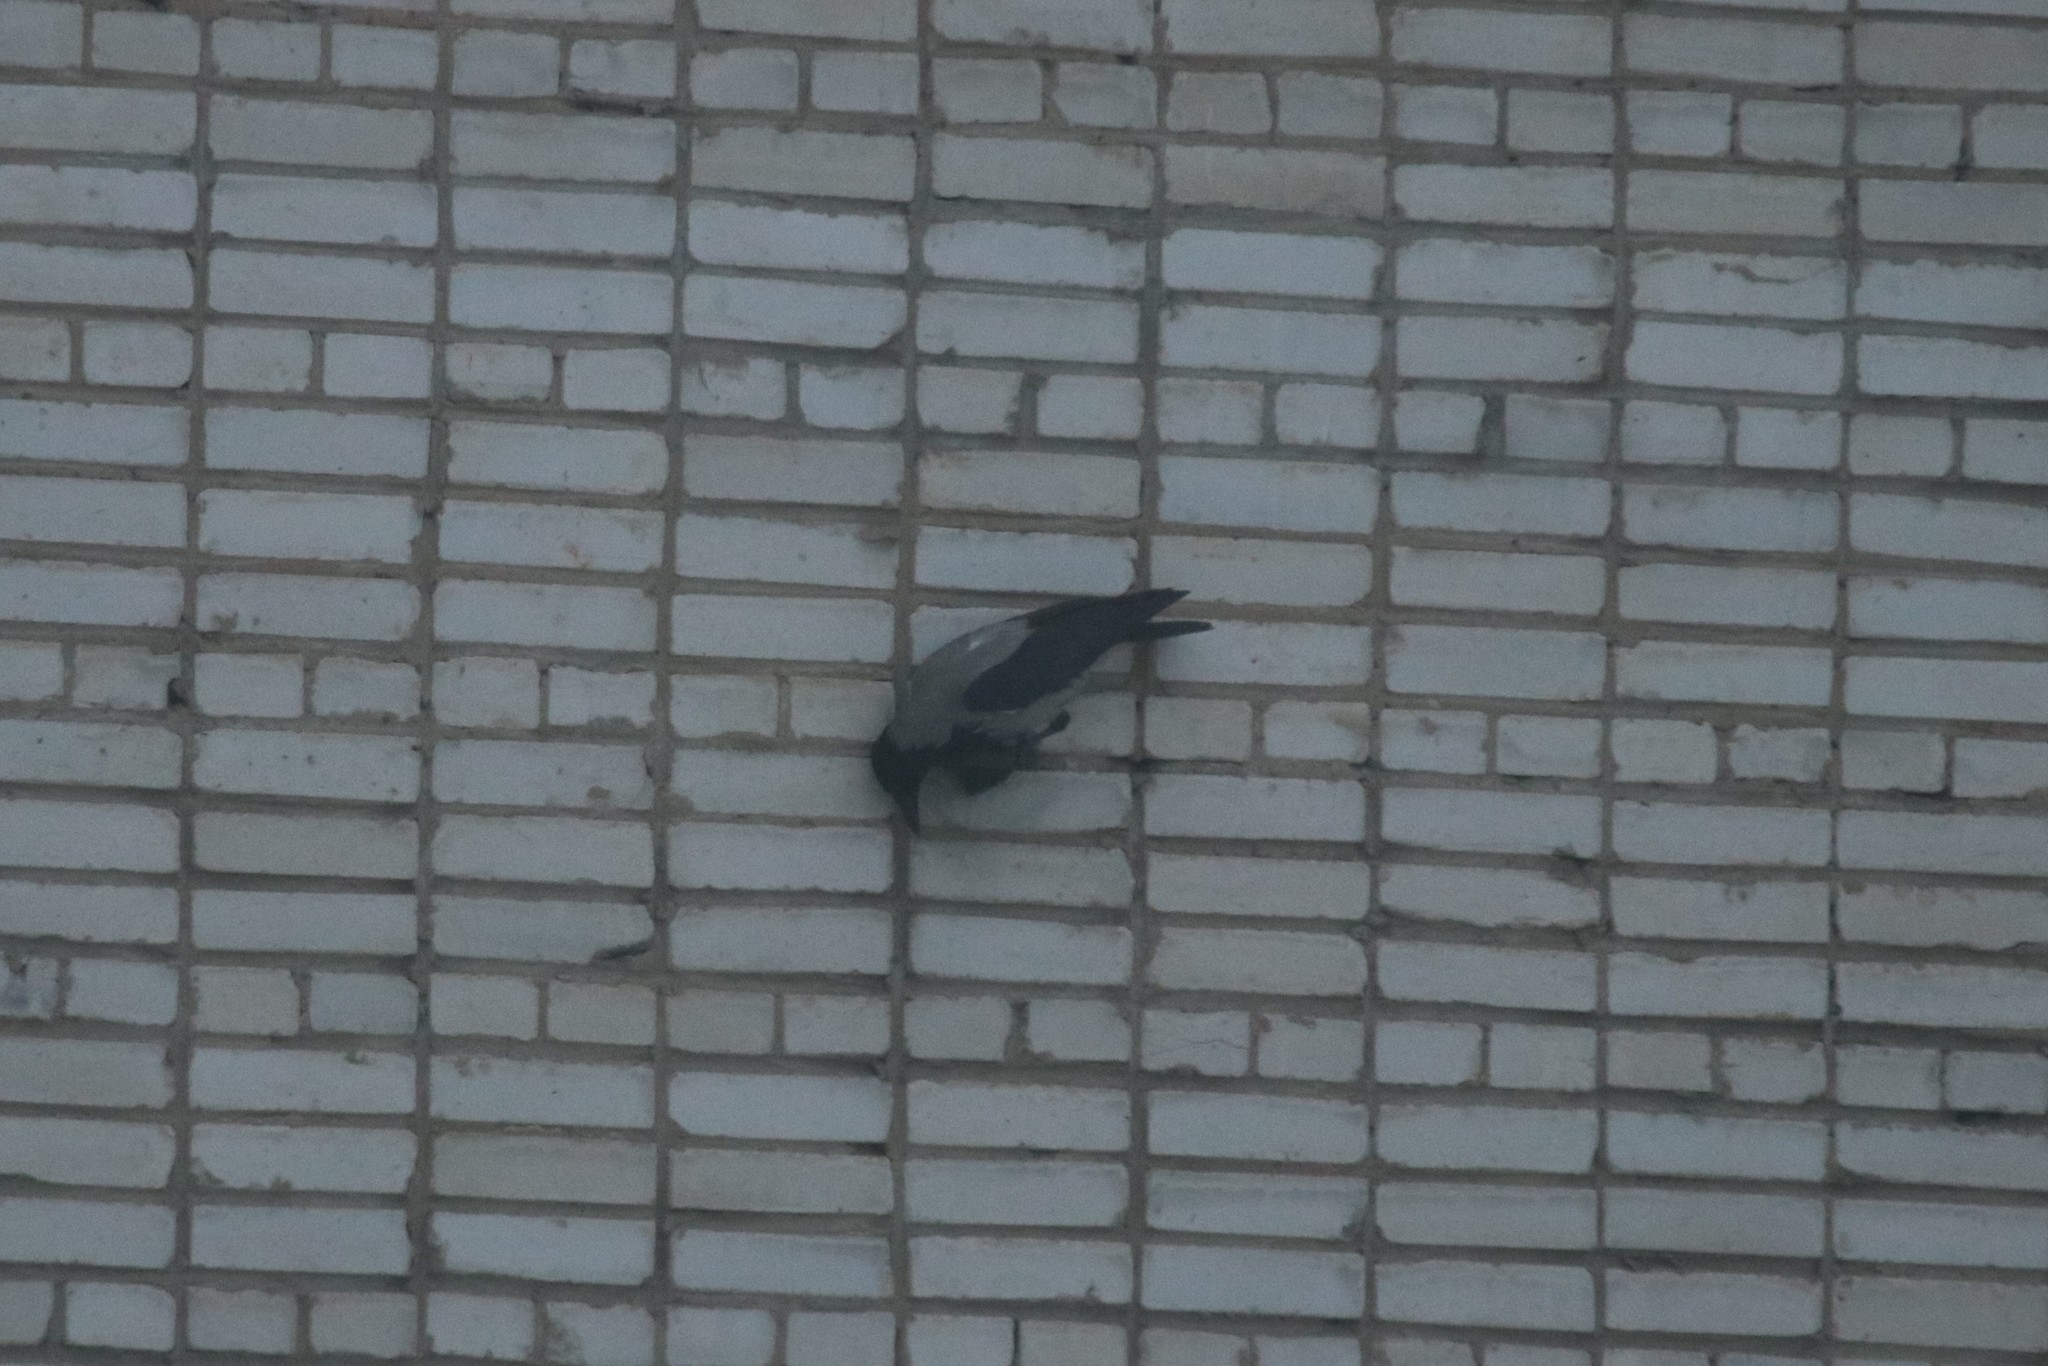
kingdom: Animalia
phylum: Chordata
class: Aves
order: Passeriformes
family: Corvidae
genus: Corvus
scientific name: Corvus cornix
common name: Hooded crow
